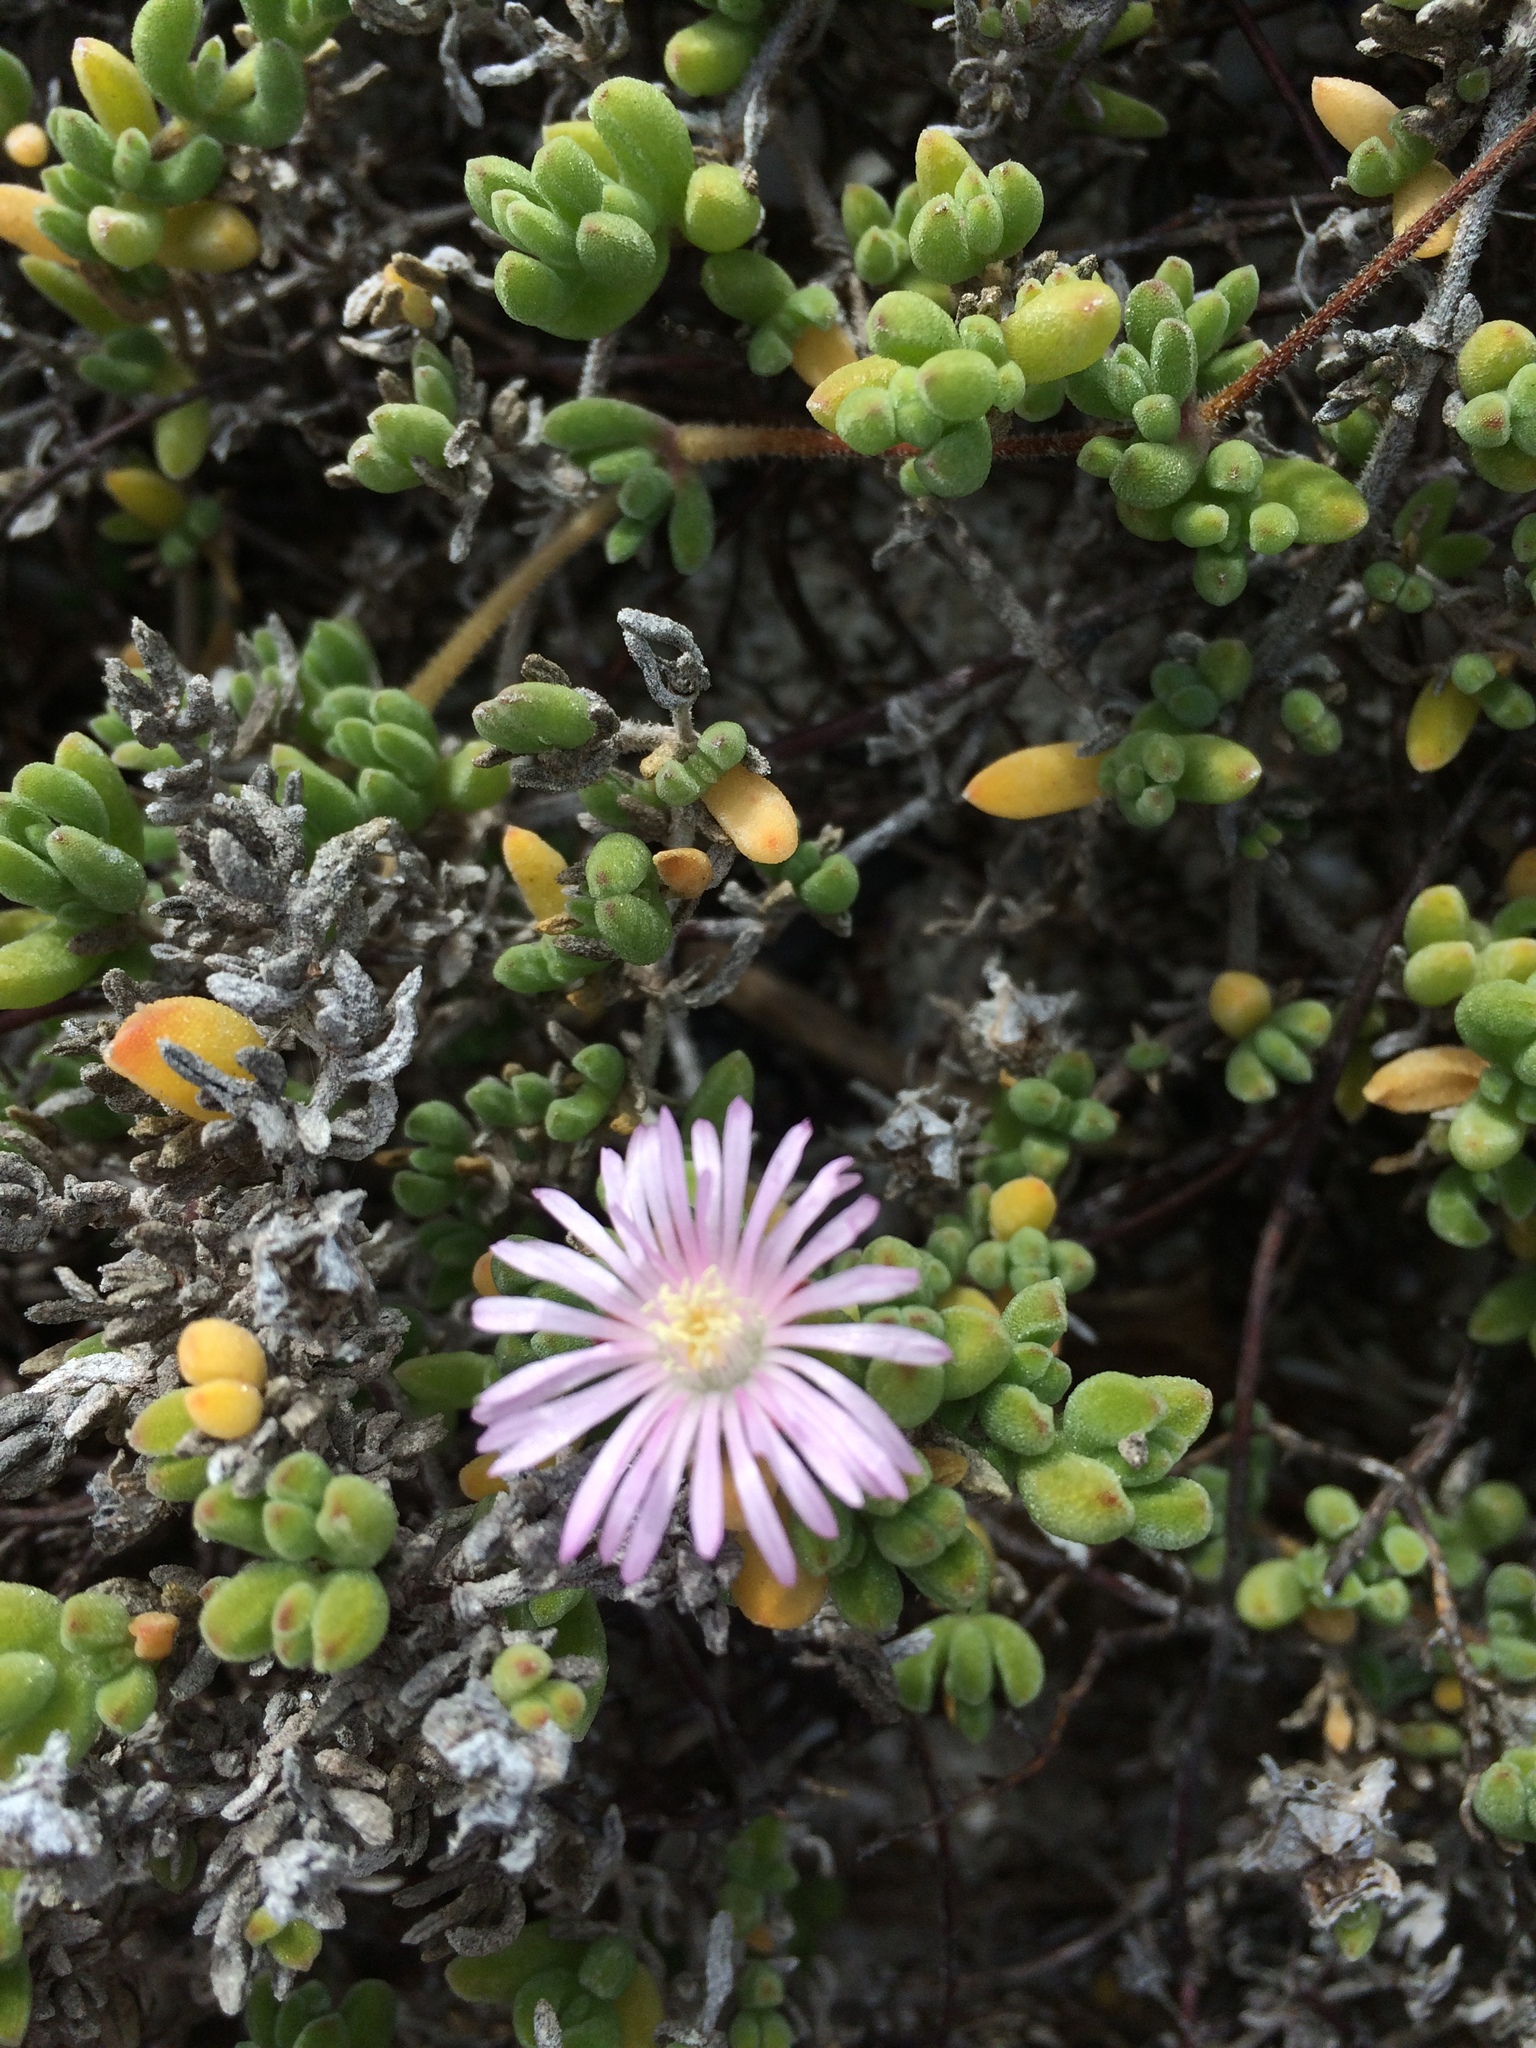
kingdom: Plantae
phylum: Tracheophyta
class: Magnoliopsida
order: Caryophyllales
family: Aizoaceae
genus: Drosanthemum
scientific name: Drosanthemum candens
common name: Rodondo-creeper
